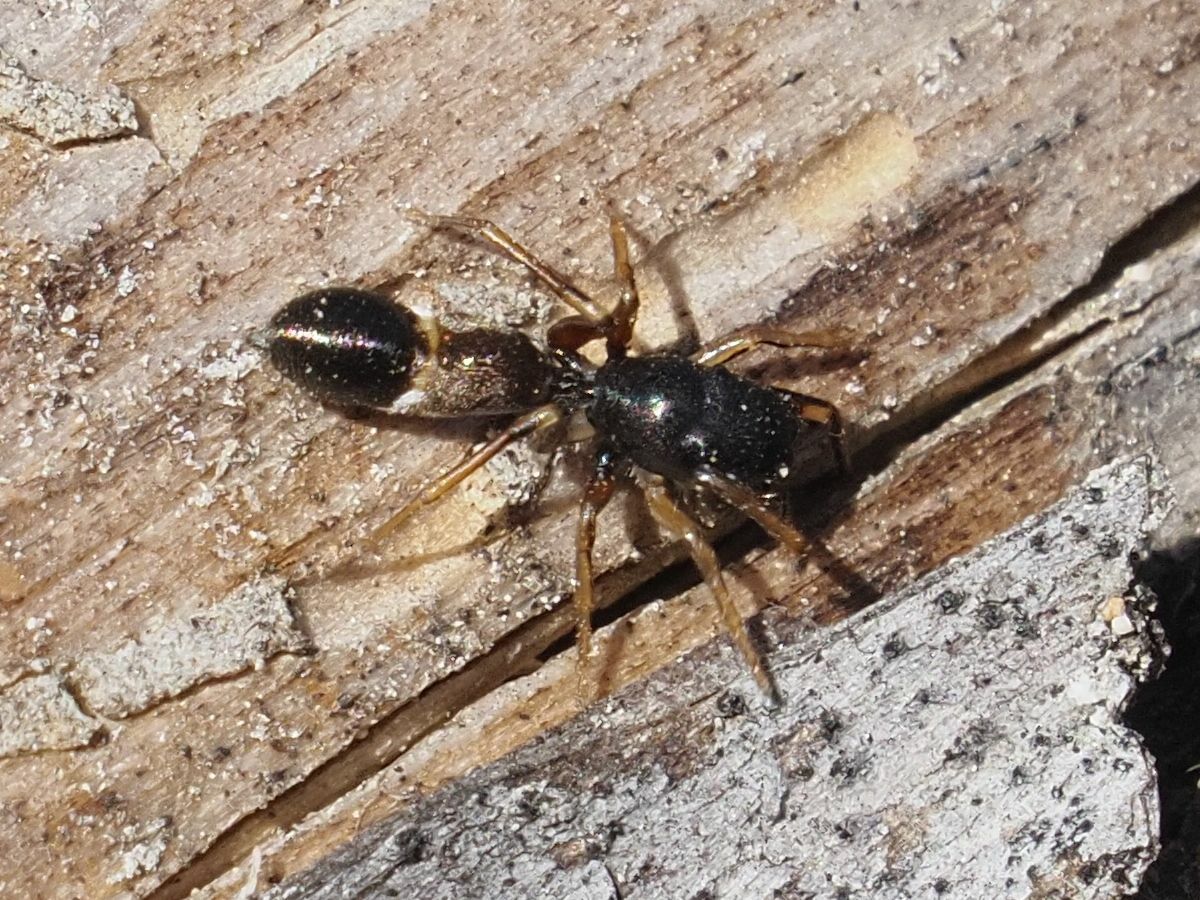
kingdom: Animalia
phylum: Arthropoda
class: Arachnida
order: Araneae
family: Salticidae
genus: Leptorchestes
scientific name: Leptorchestes berolinensis
